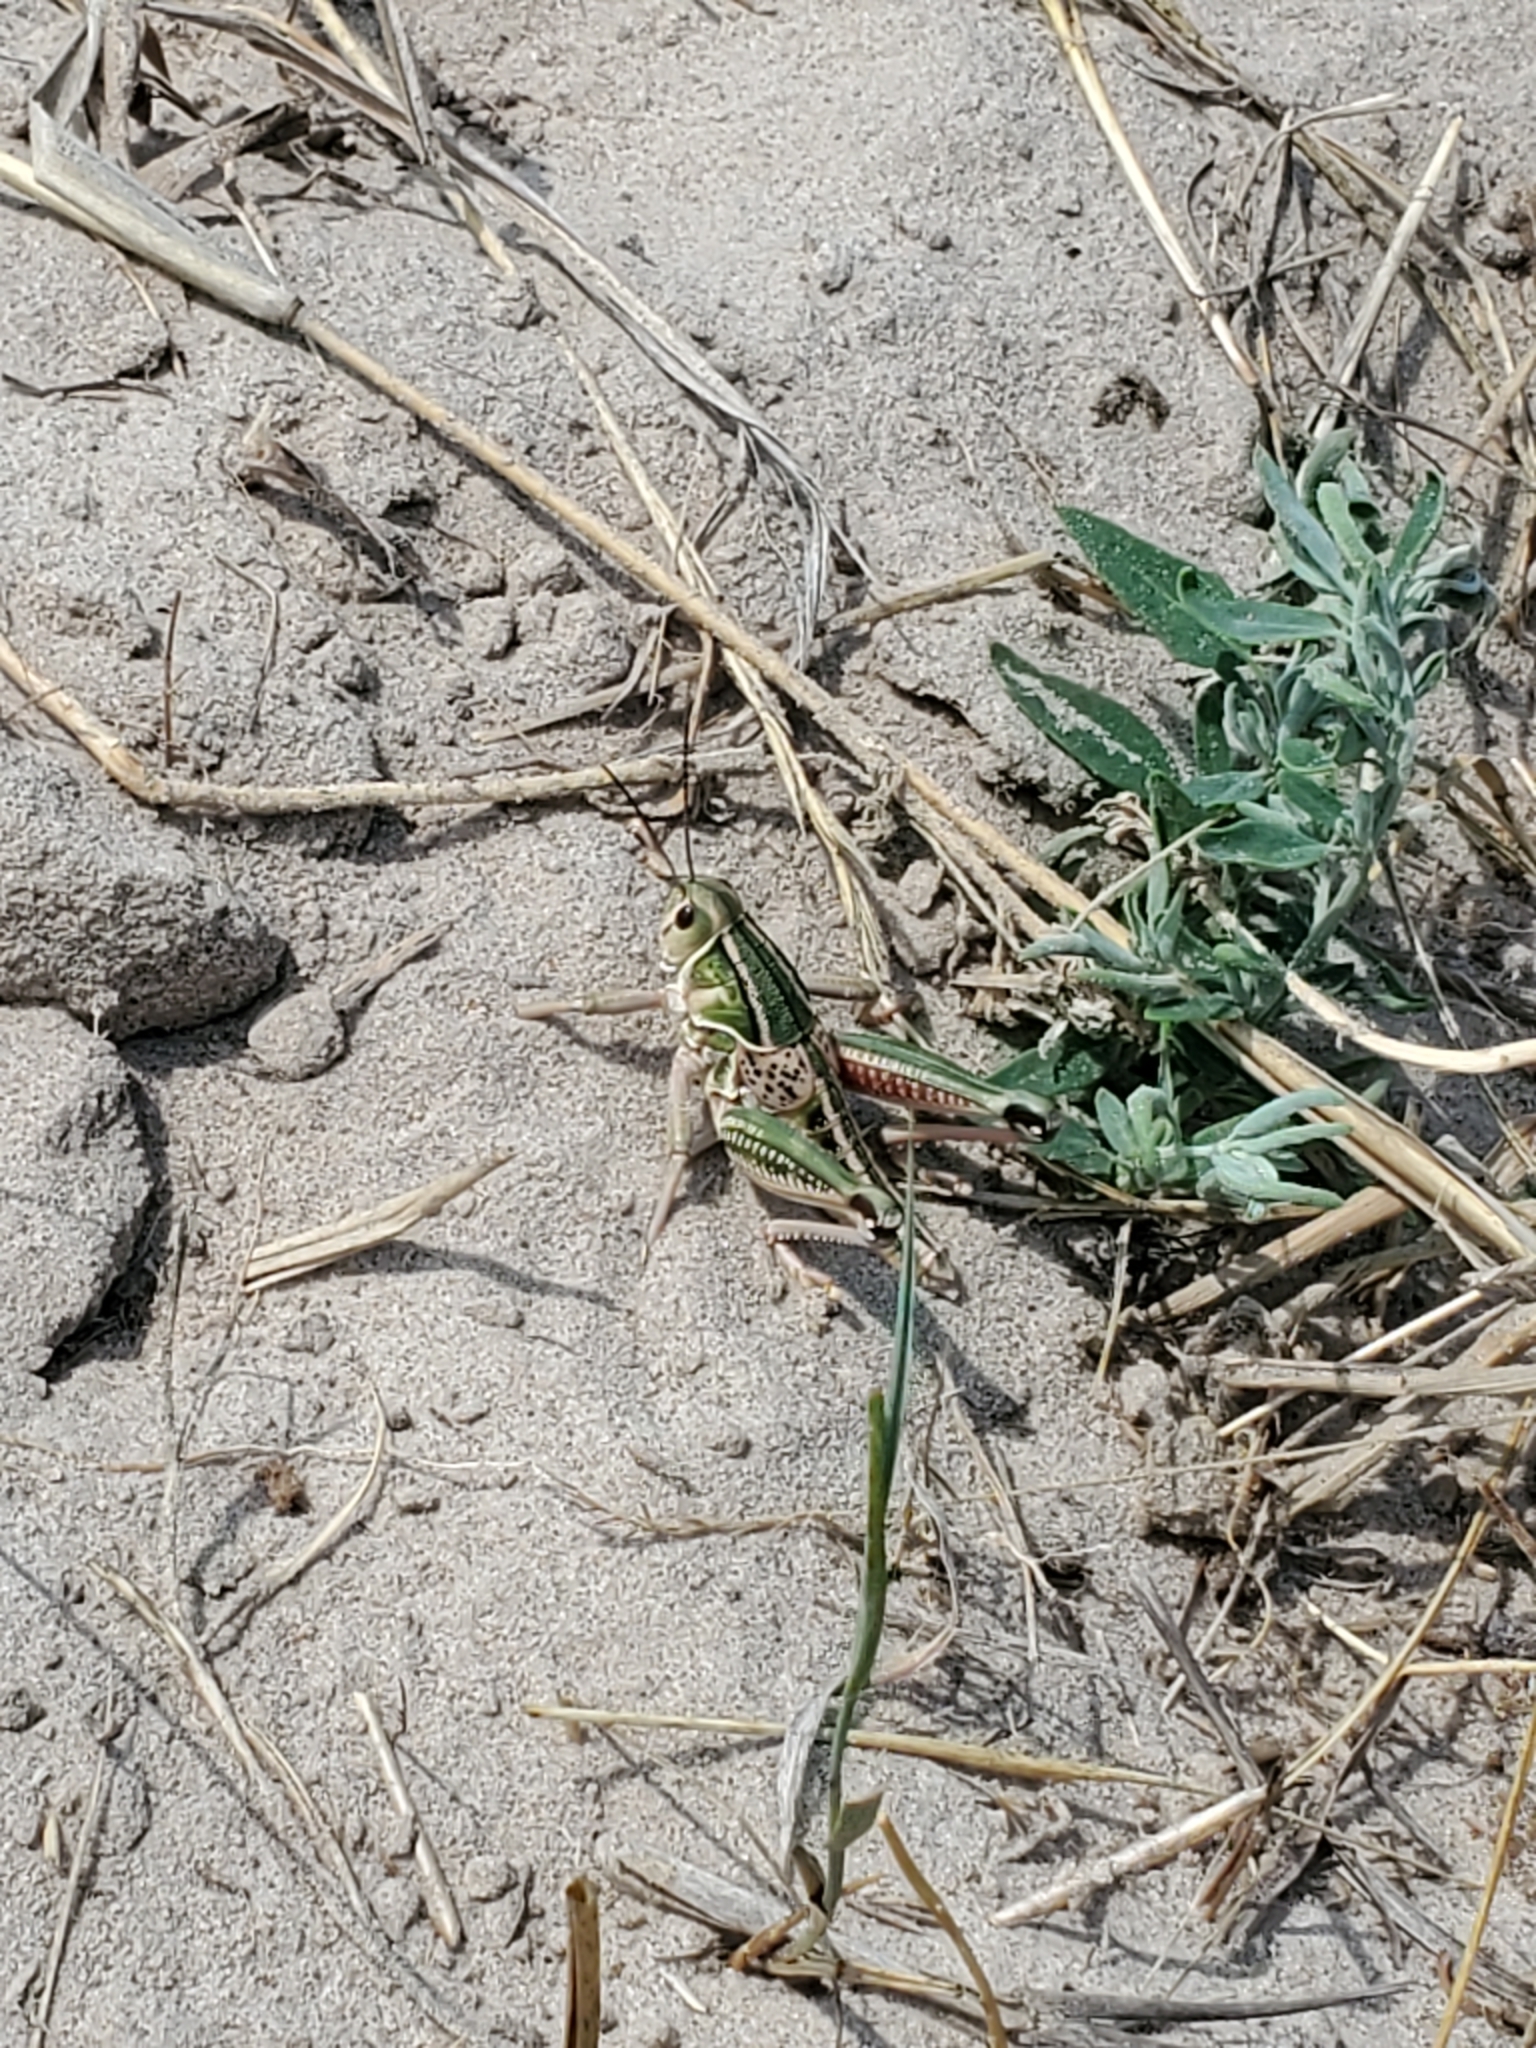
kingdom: Animalia
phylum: Arthropoda
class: Insecta
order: Orthoptera
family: Romaleidae
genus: Brachystola
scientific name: Brachystola magna
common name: Plains lubber grasshopper
